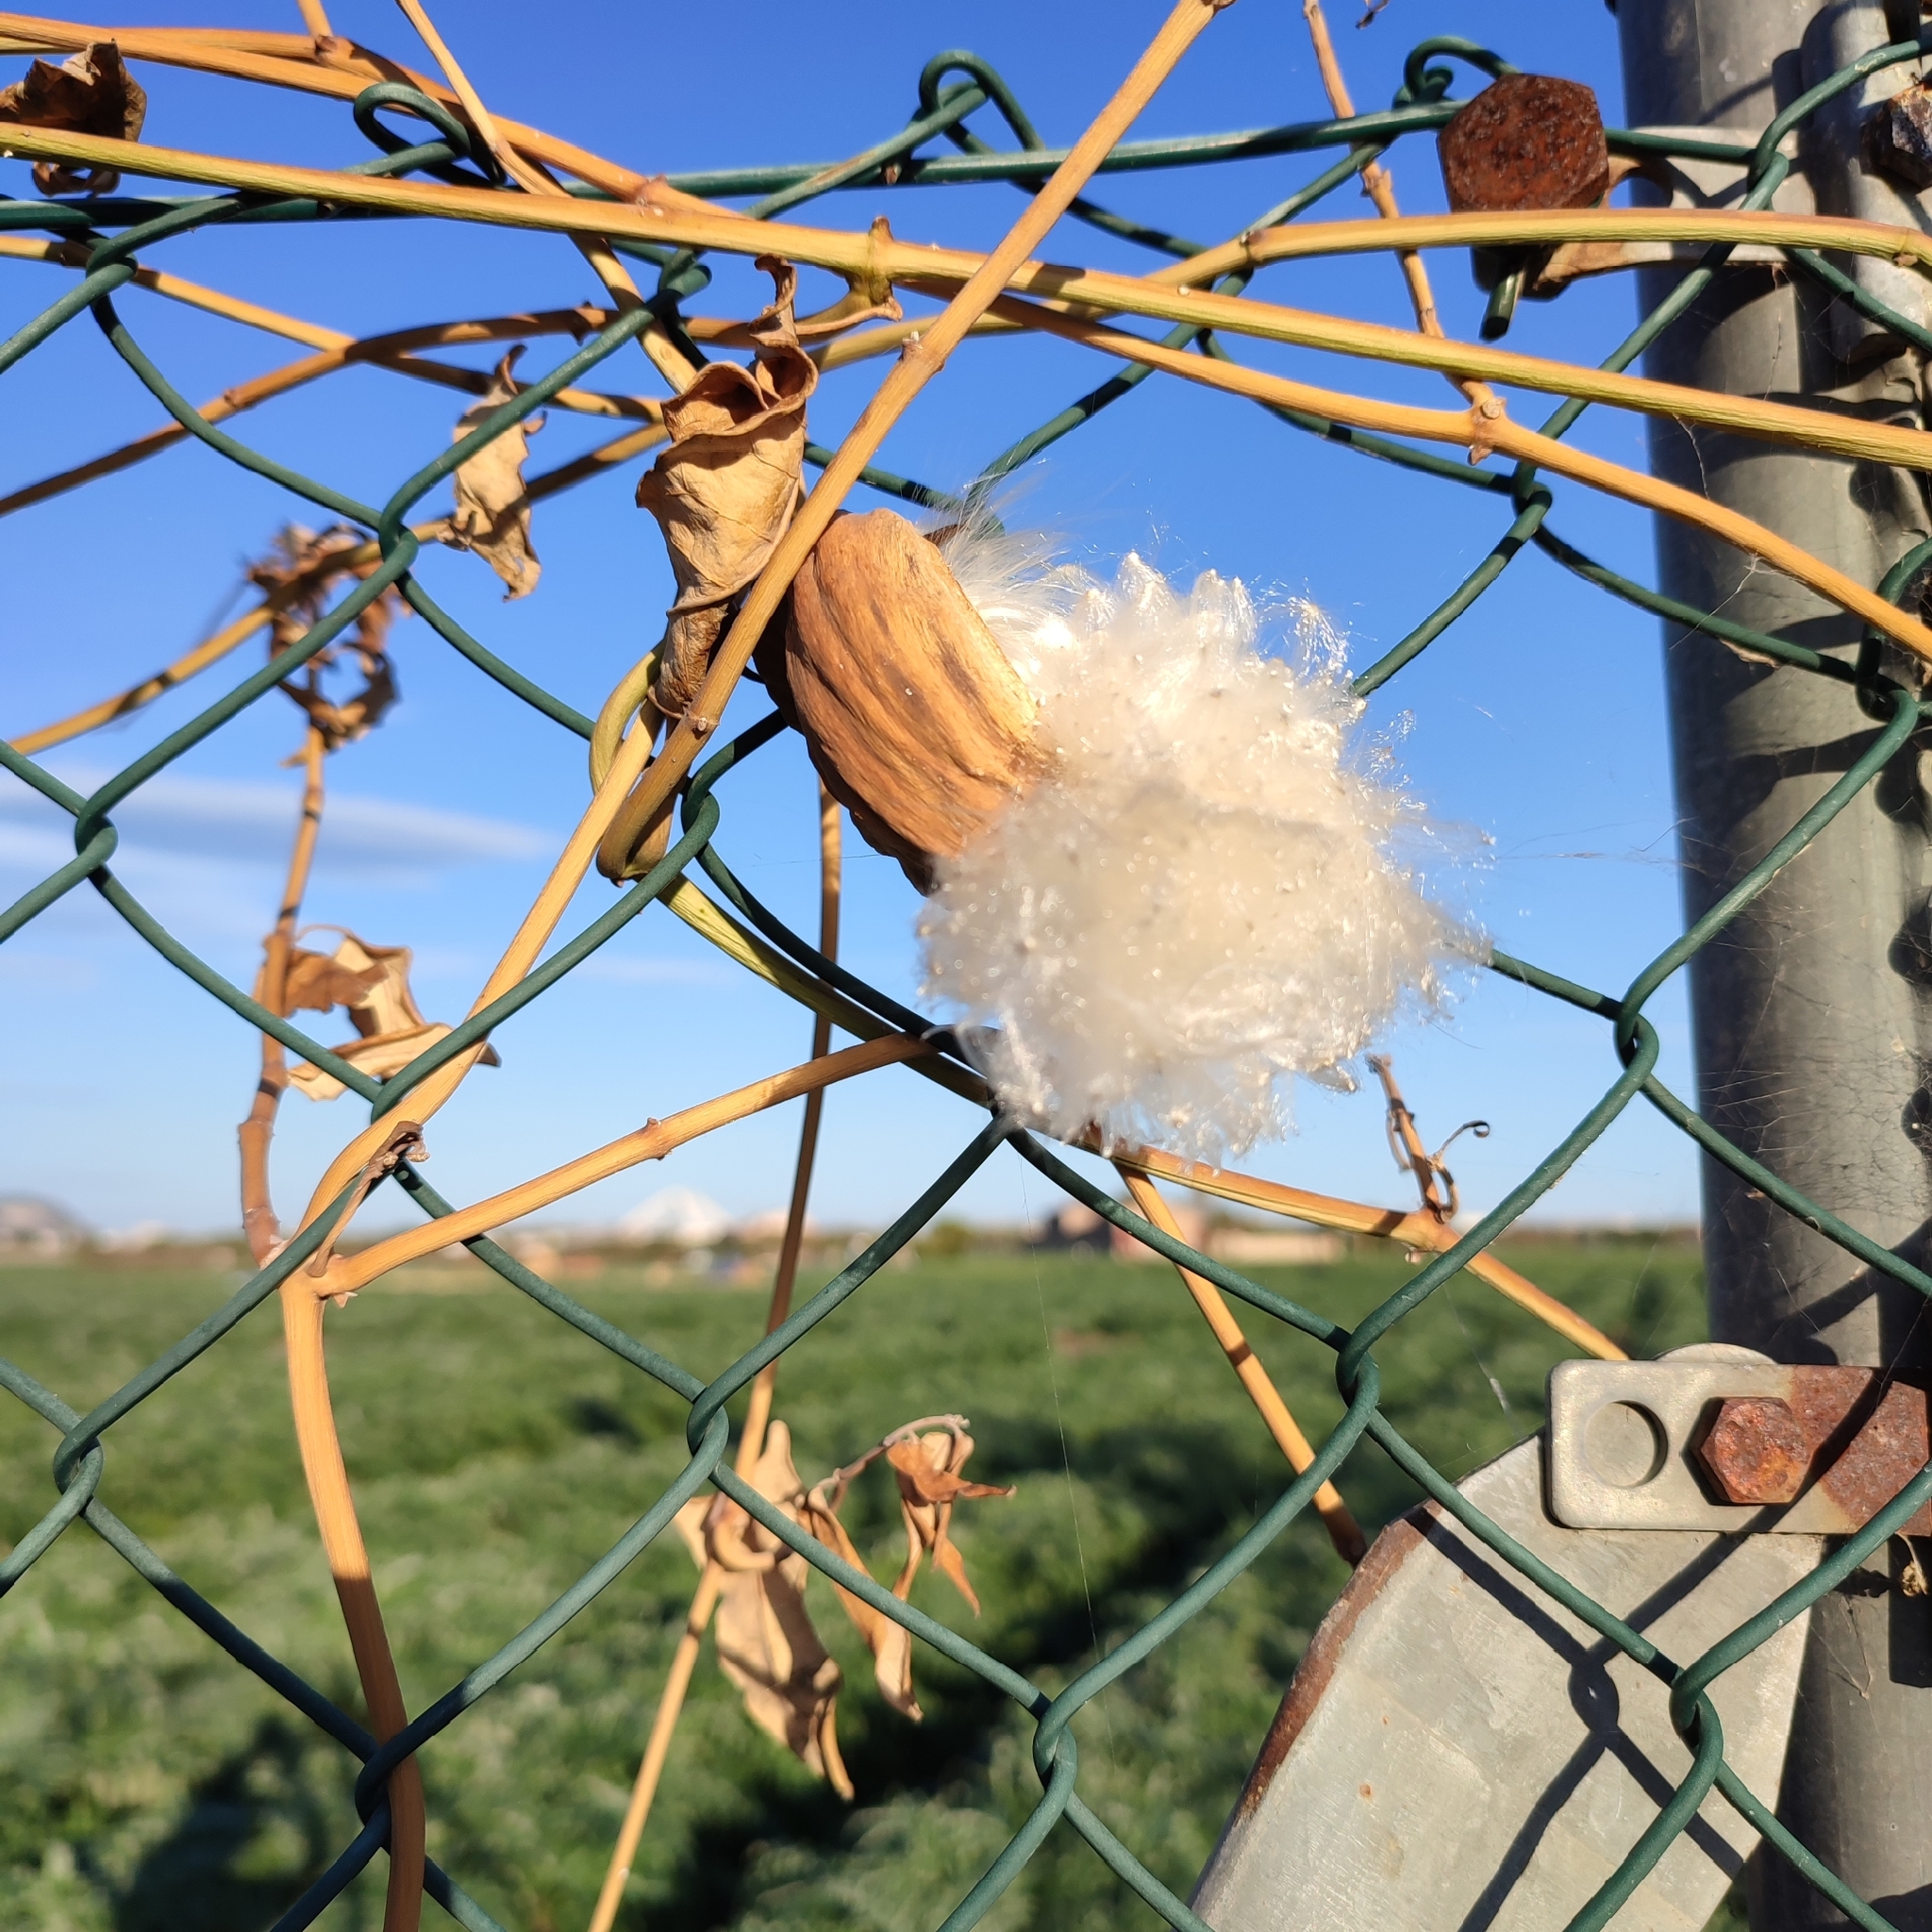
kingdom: Plantae
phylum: Tracheophyta
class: Magnoliopsida
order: Gentianales
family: Apocynaceae
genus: Araujia
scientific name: Araujia sericifera
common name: White bladderflower
